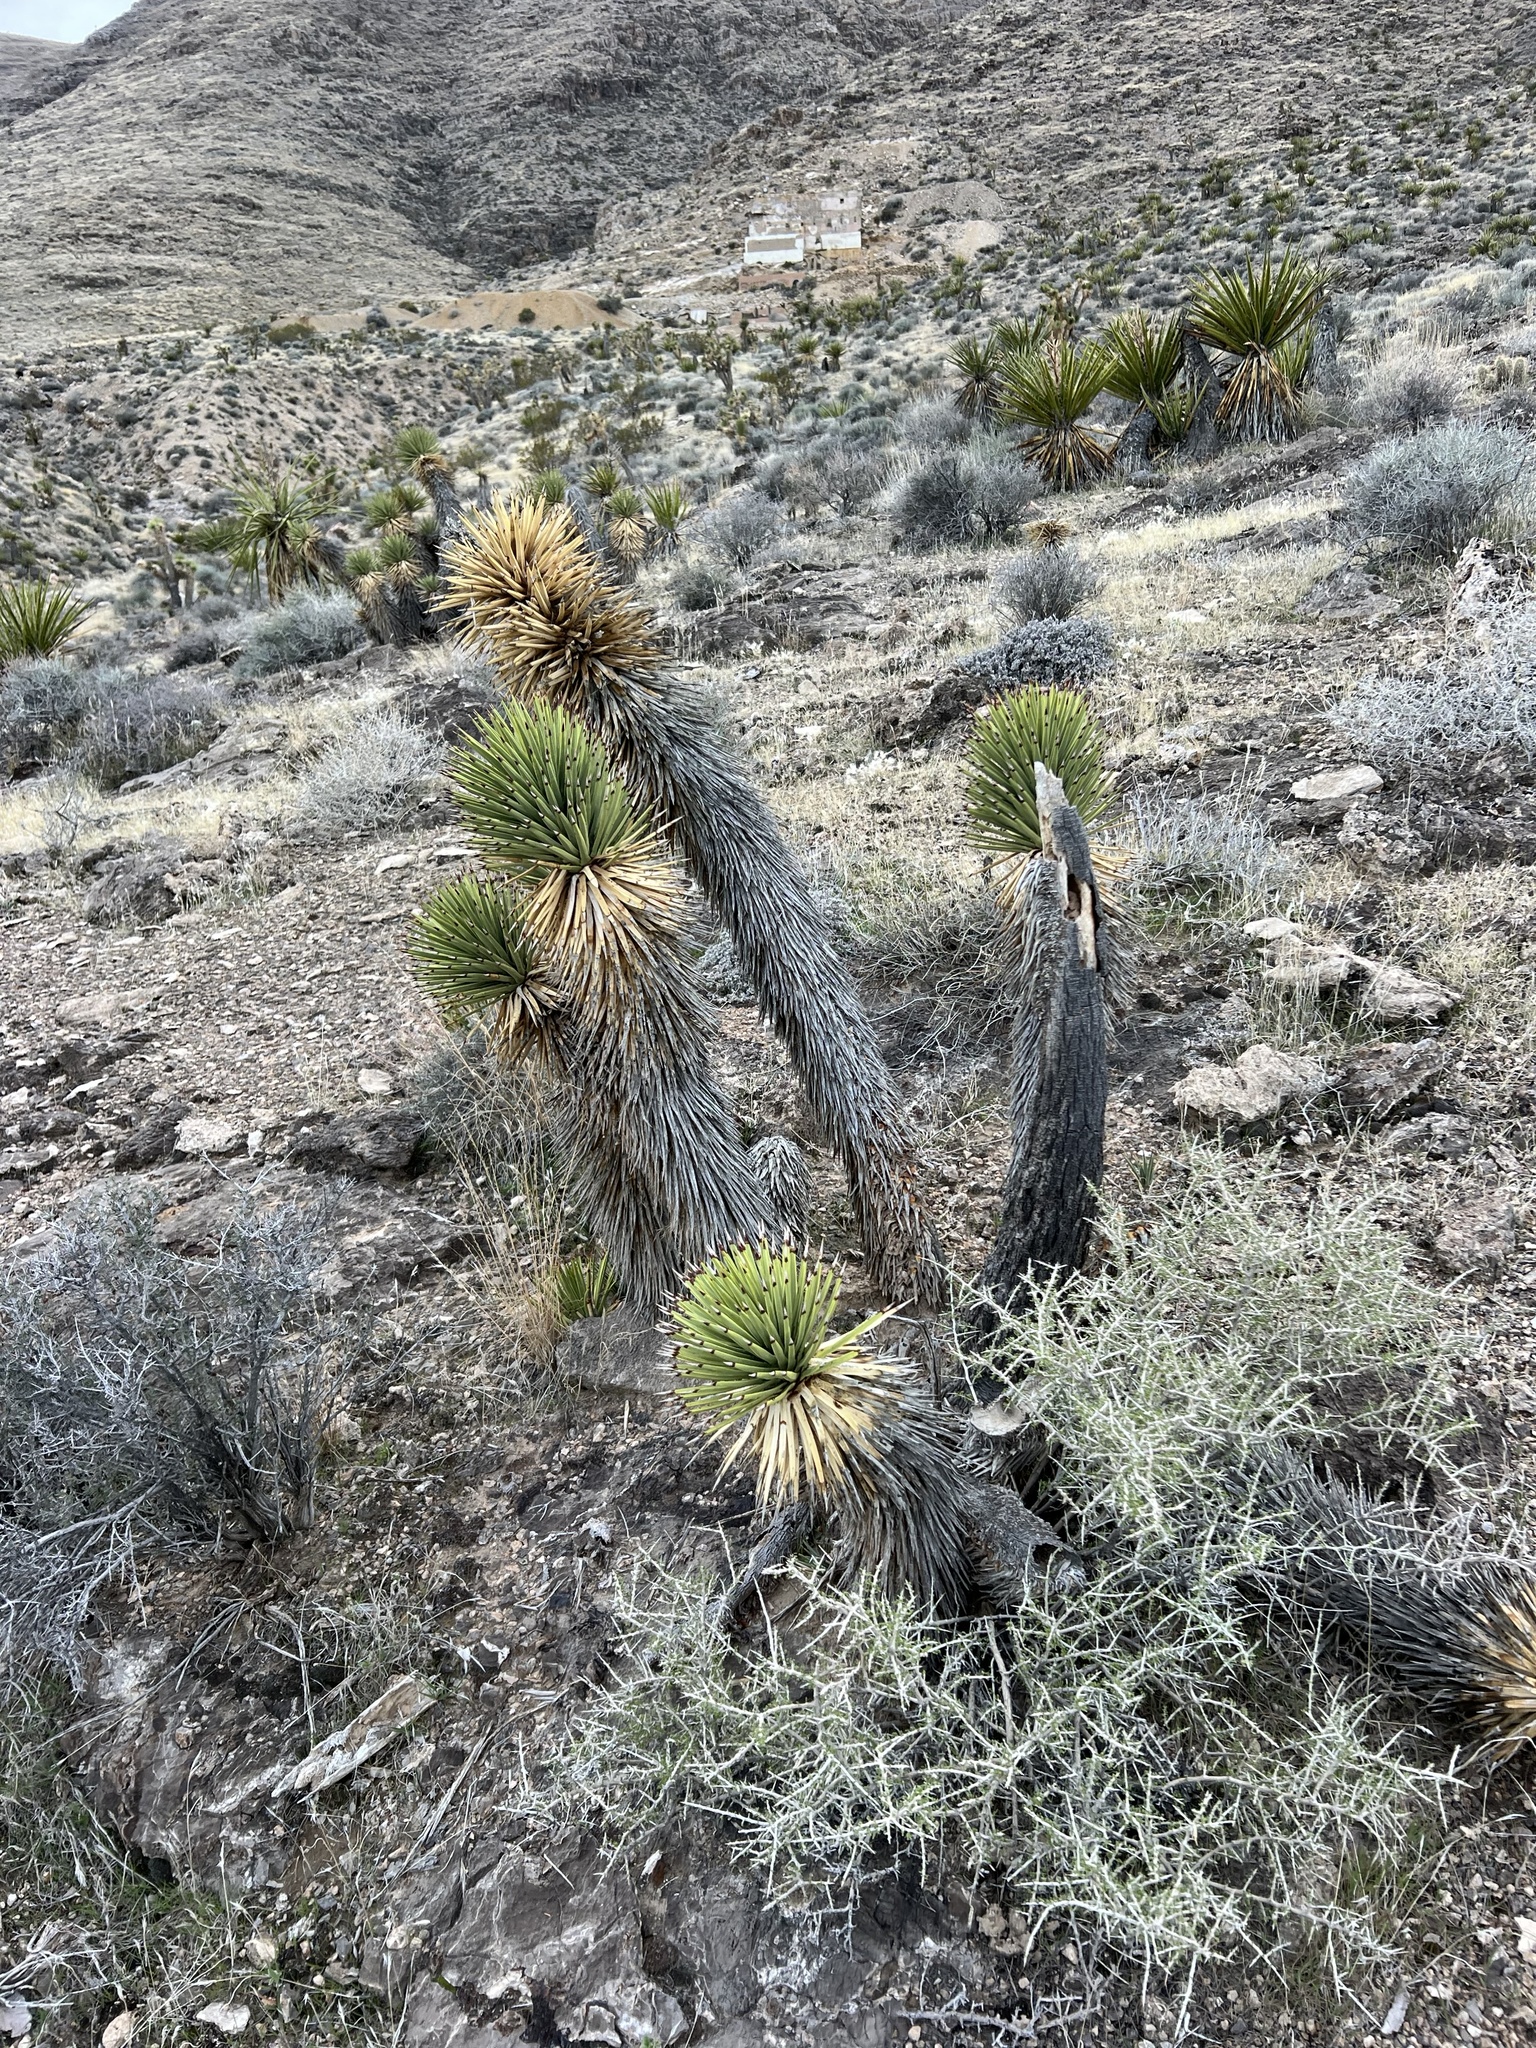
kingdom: Plantae
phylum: Tracheophyta
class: Liliopsida
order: Asparagales
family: Asparagaceae
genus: Yucca
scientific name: Yucca brevifolia
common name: Joshua tree
